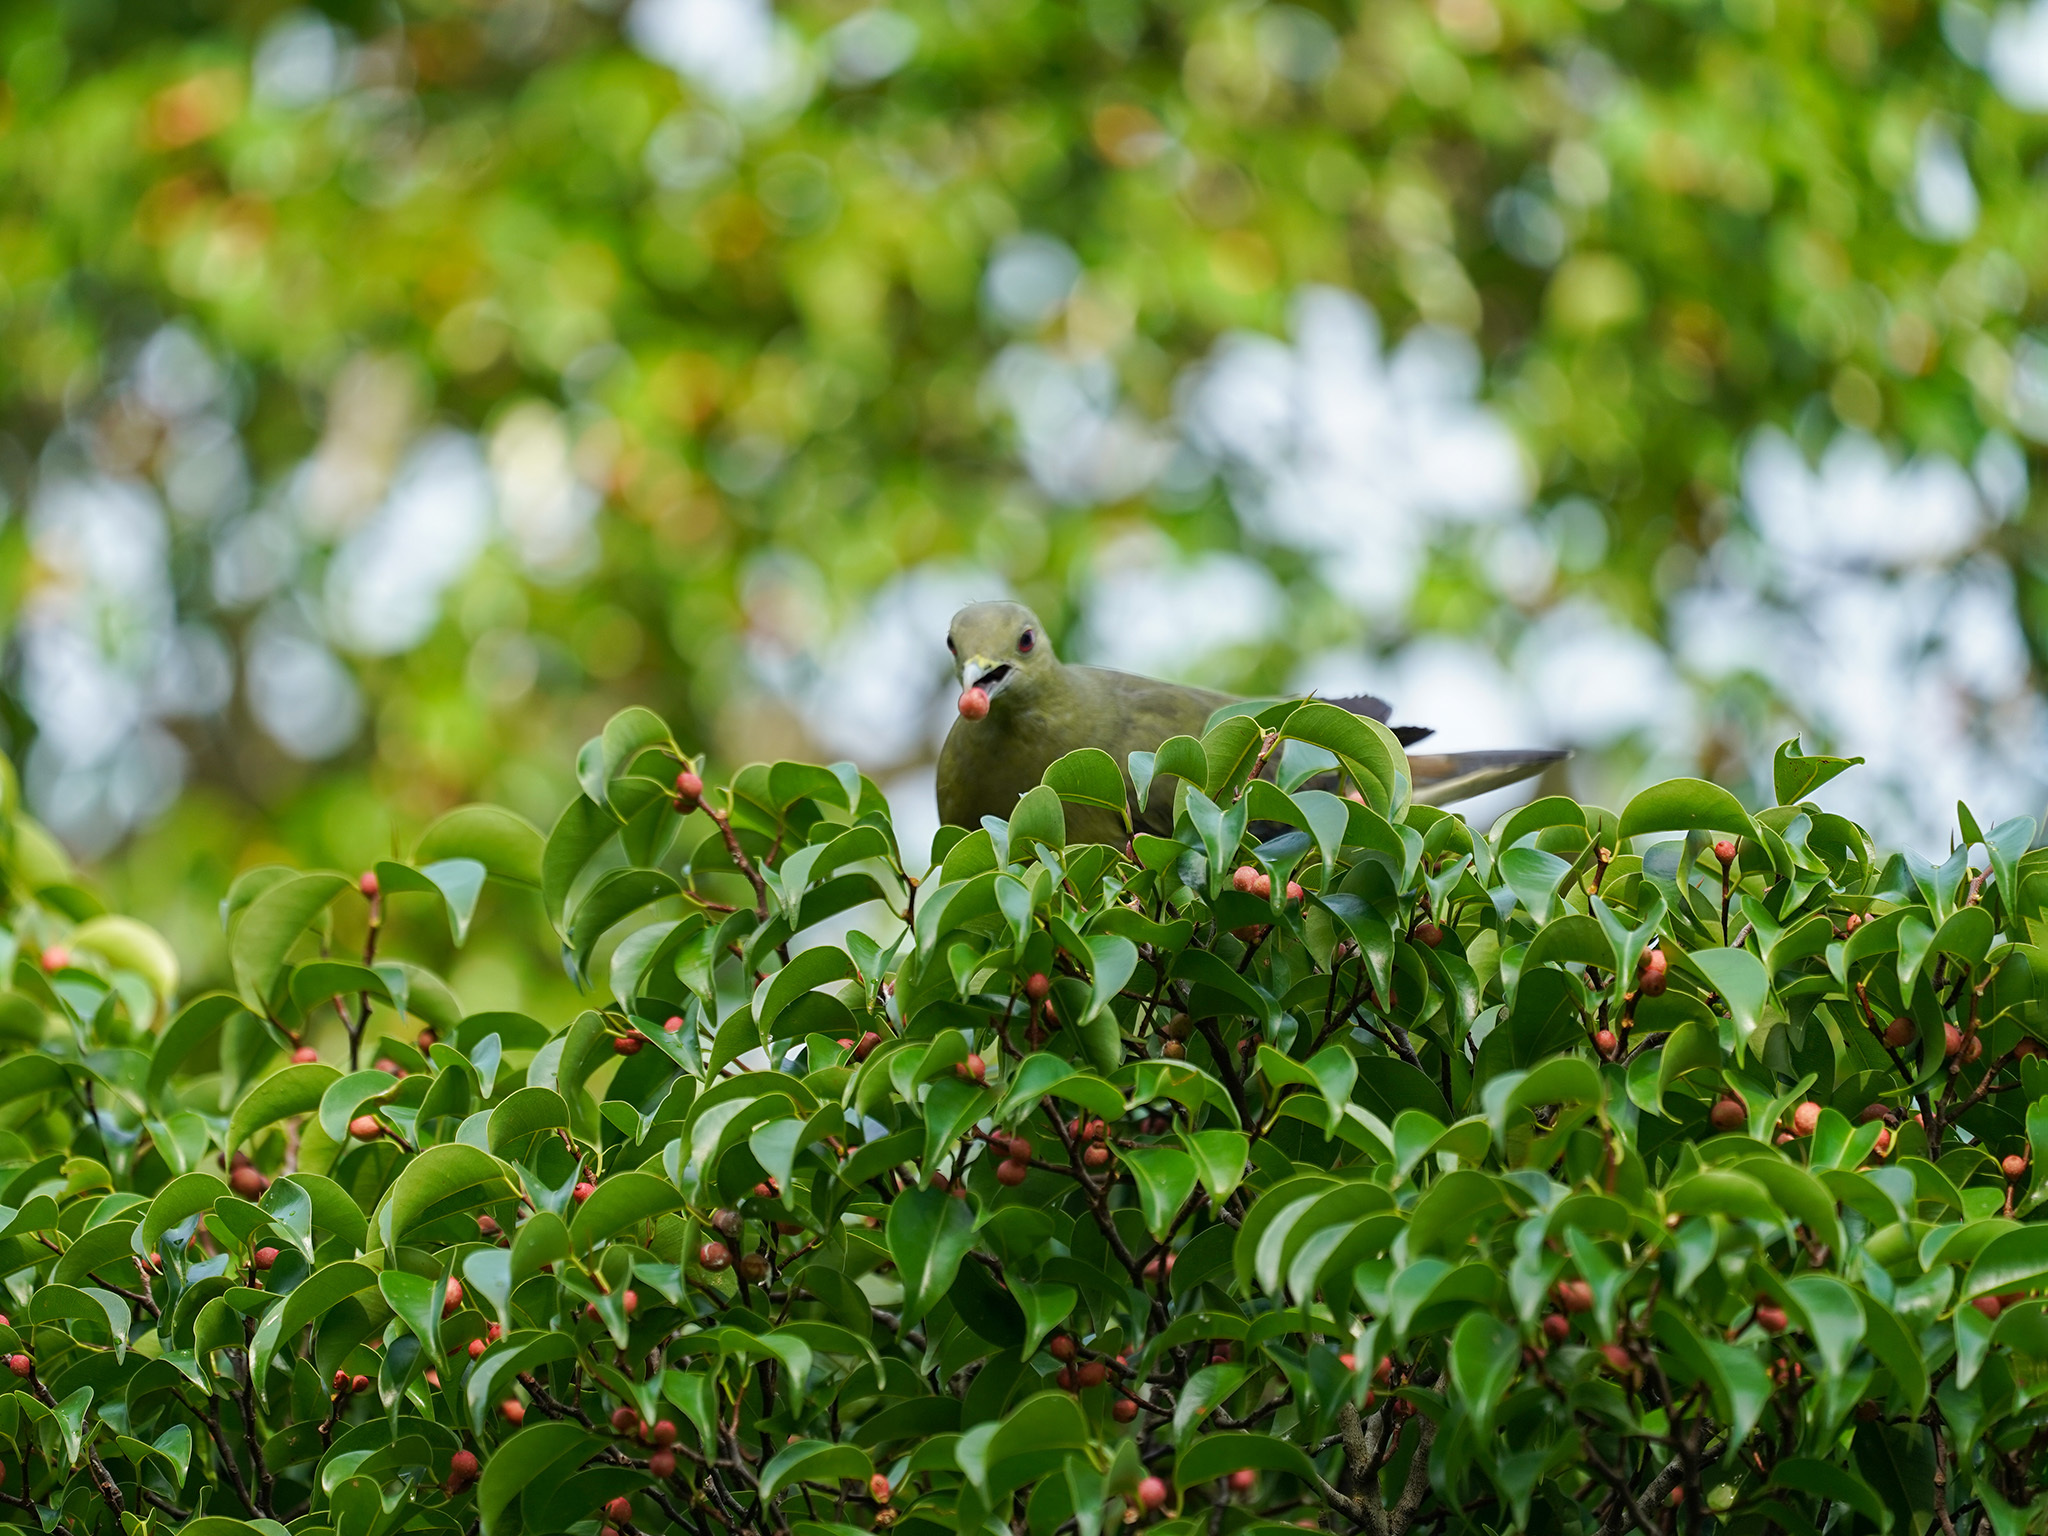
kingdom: Animalia
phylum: Chordata
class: Aves
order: Columbiformes
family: Columbidae
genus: Treron
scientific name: Treron vernans
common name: Pink-necked green pigeon
